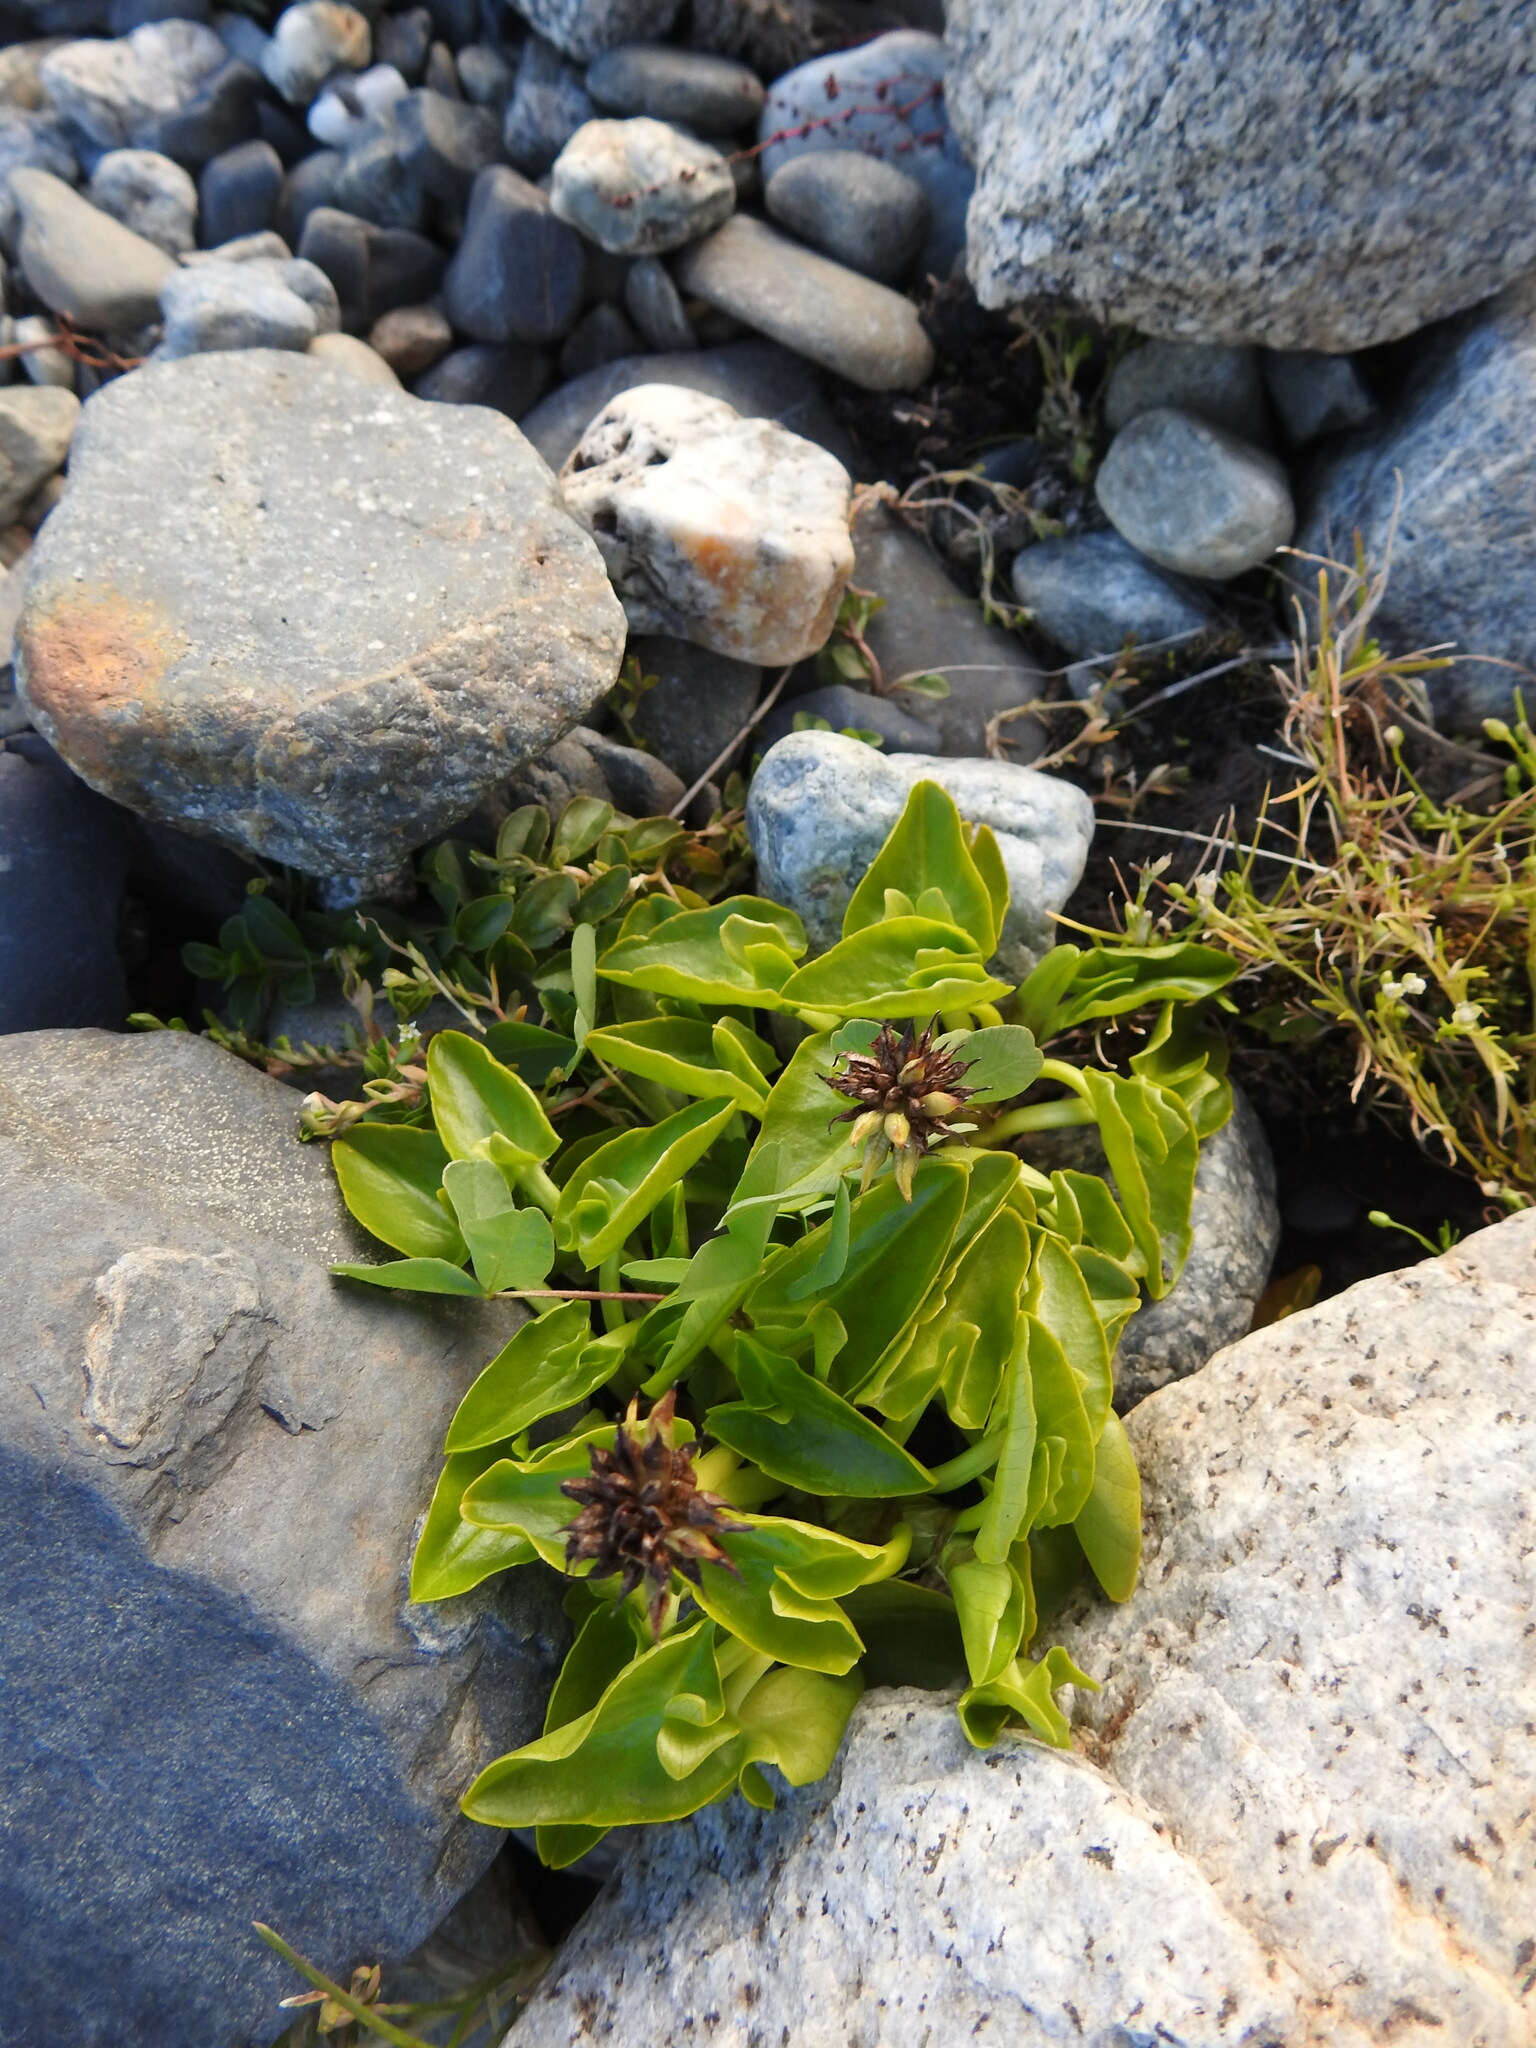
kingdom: Plantae
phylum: Tracheophyta
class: Magnoliopsida
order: Ranunculales
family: Ranunculaceae
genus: Caltha
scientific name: Caltha sagittata
